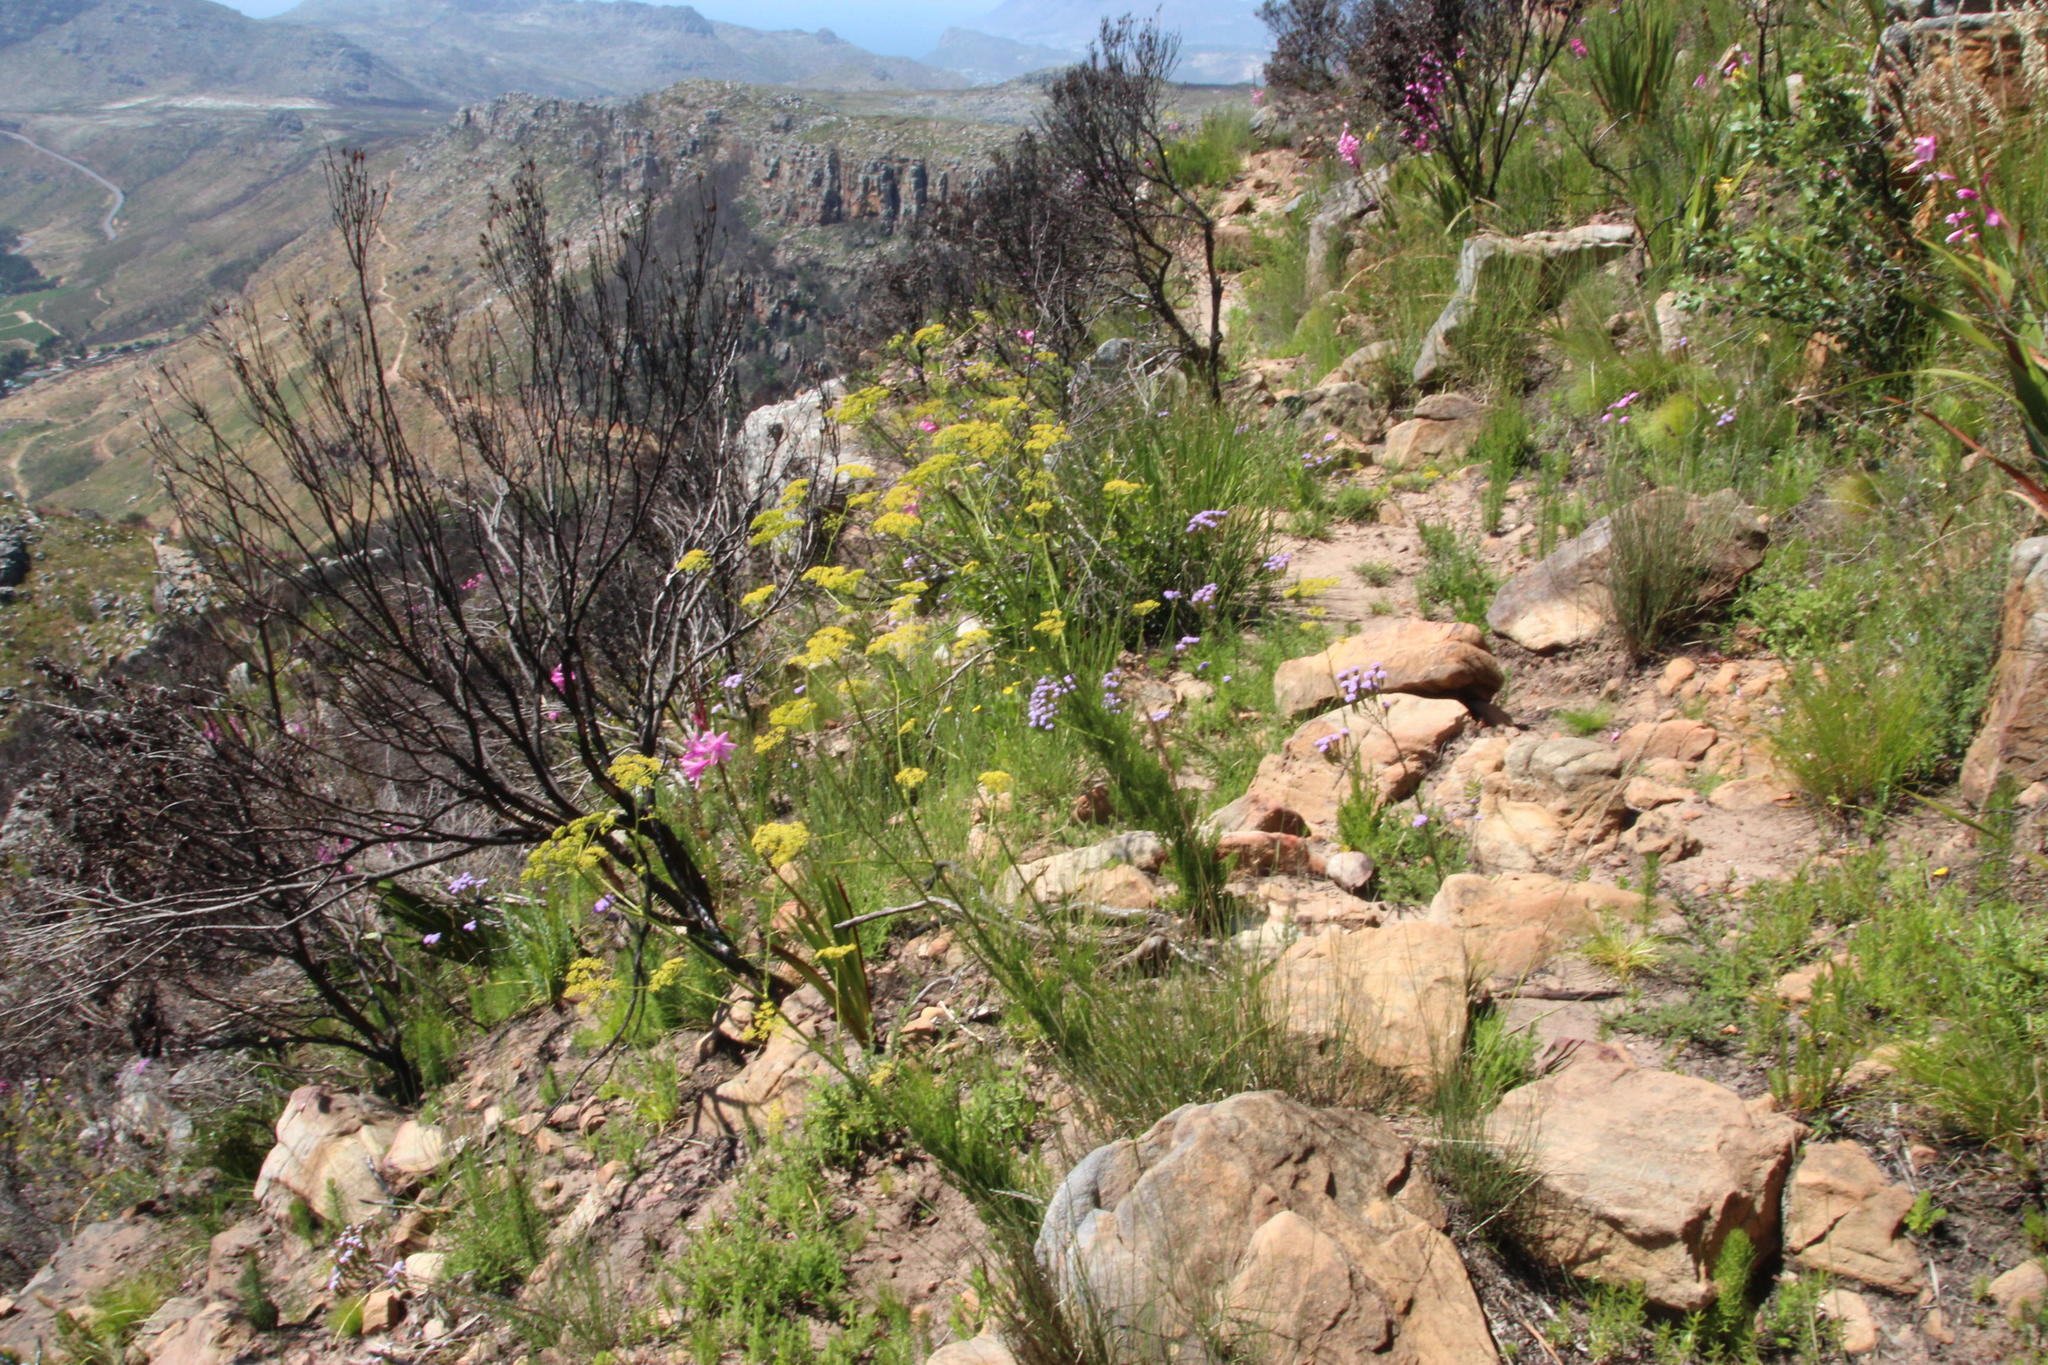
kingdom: Plantae
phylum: Tracheophyta
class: Magnoliopsida
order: Apiales
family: Apiaceae
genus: Notobubon
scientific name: Notobubon ferulaceum
